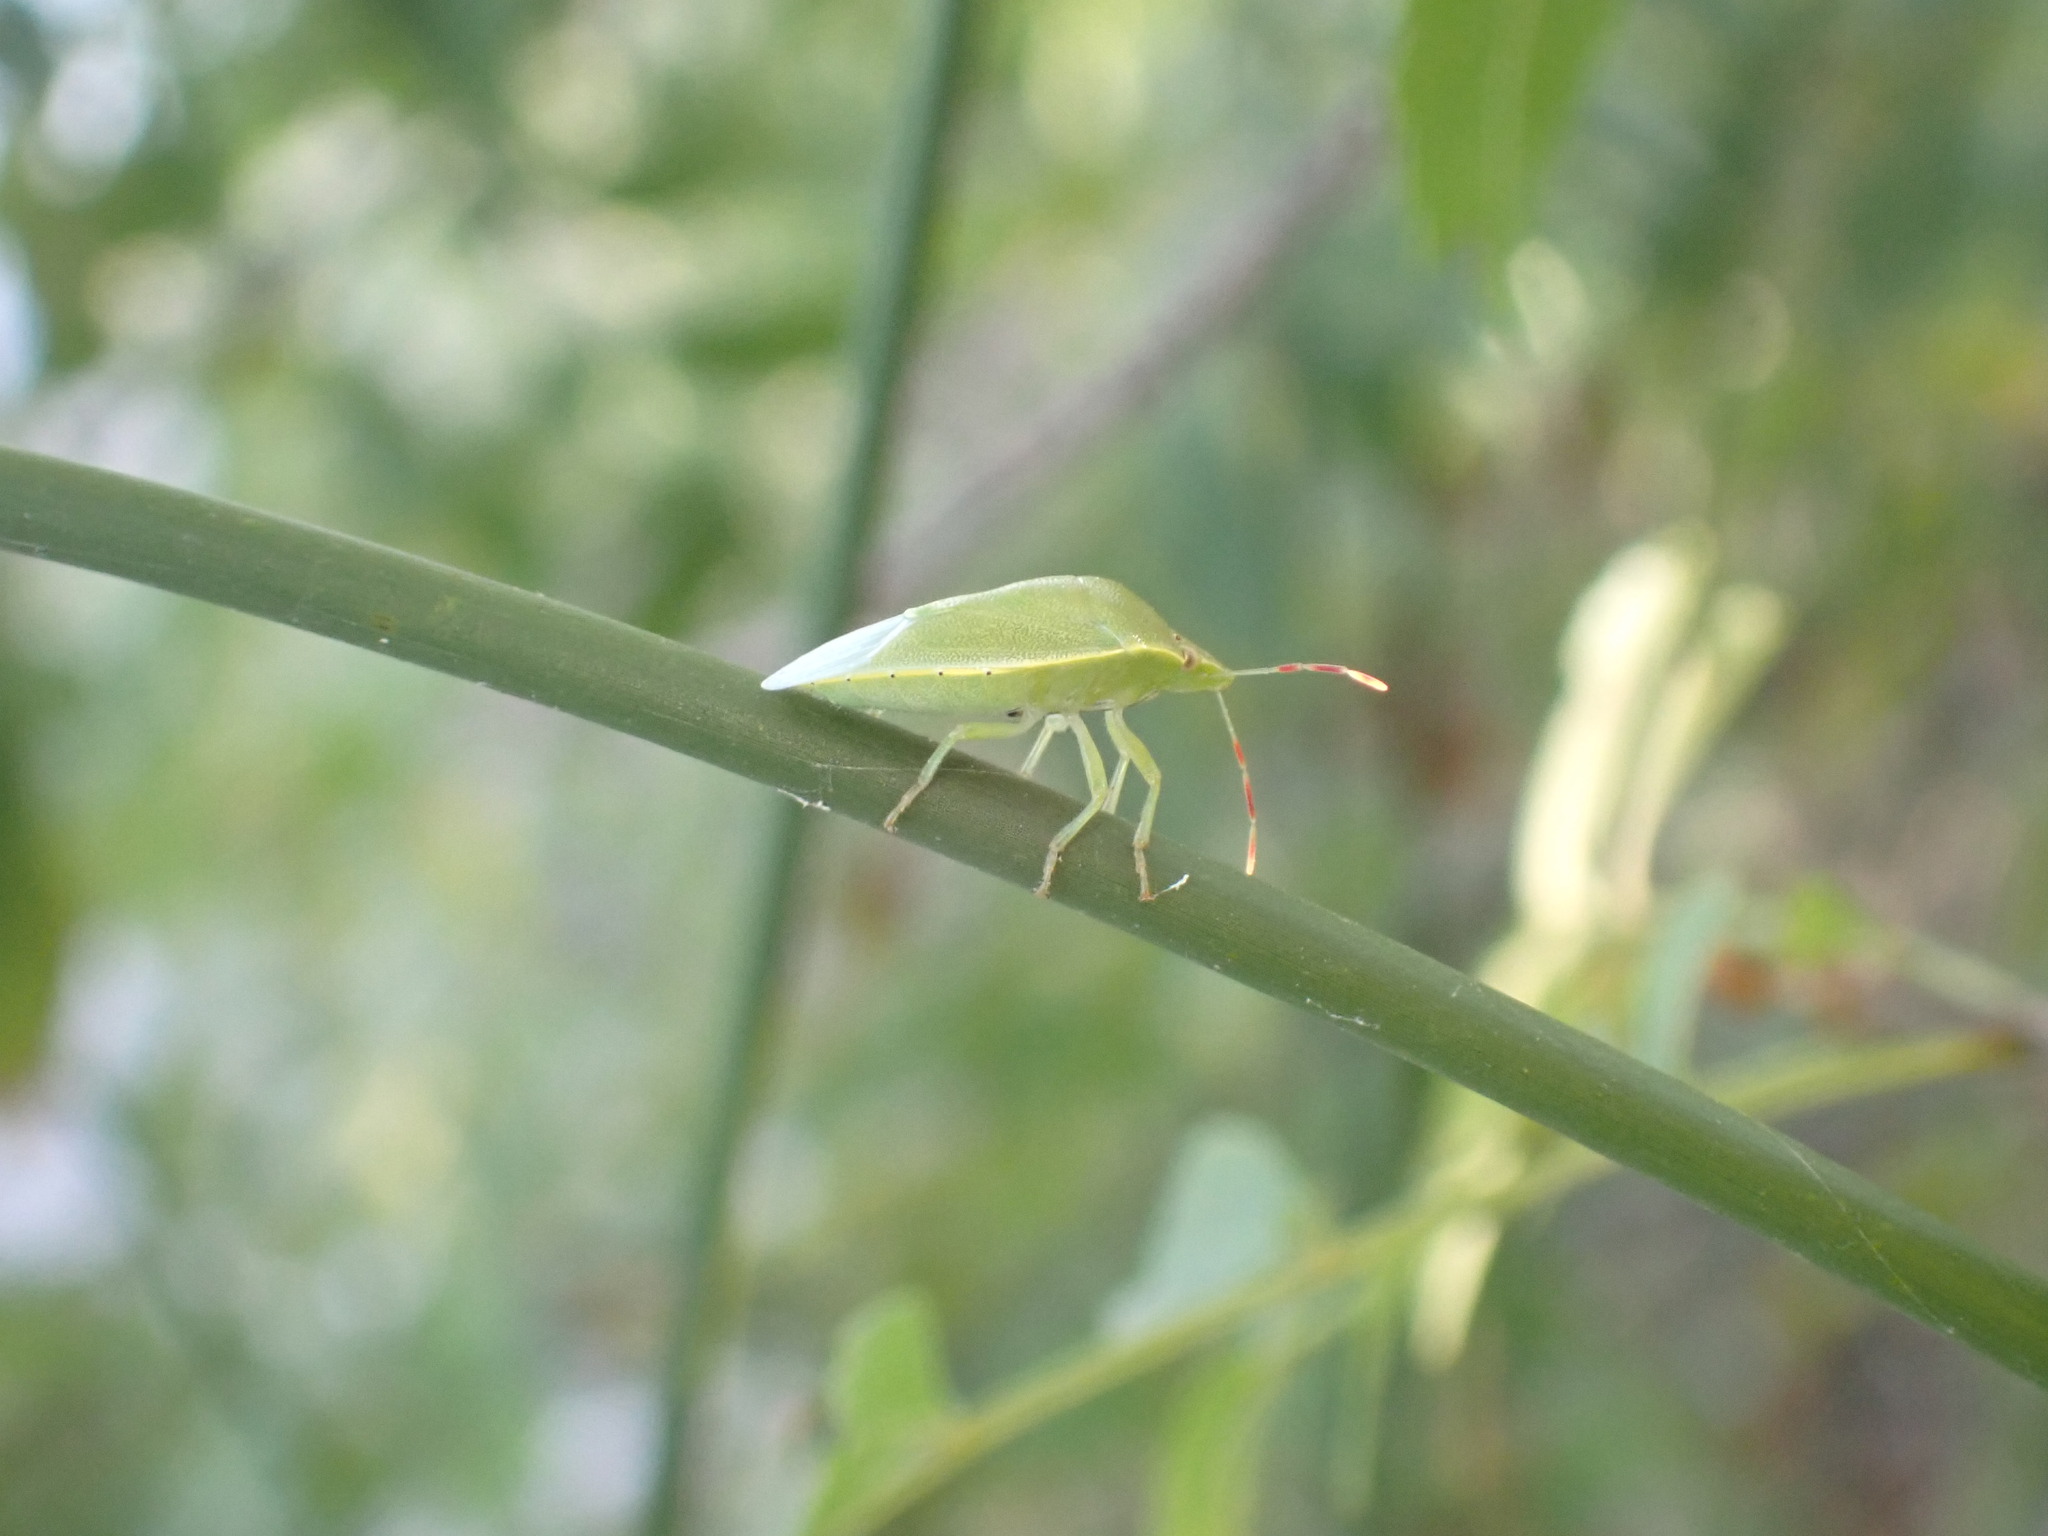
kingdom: Animalia
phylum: Arthropoda
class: Insecta
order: Hemiptera
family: Pentatomidae
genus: Acrosternum
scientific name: Acrosternum heegeri
